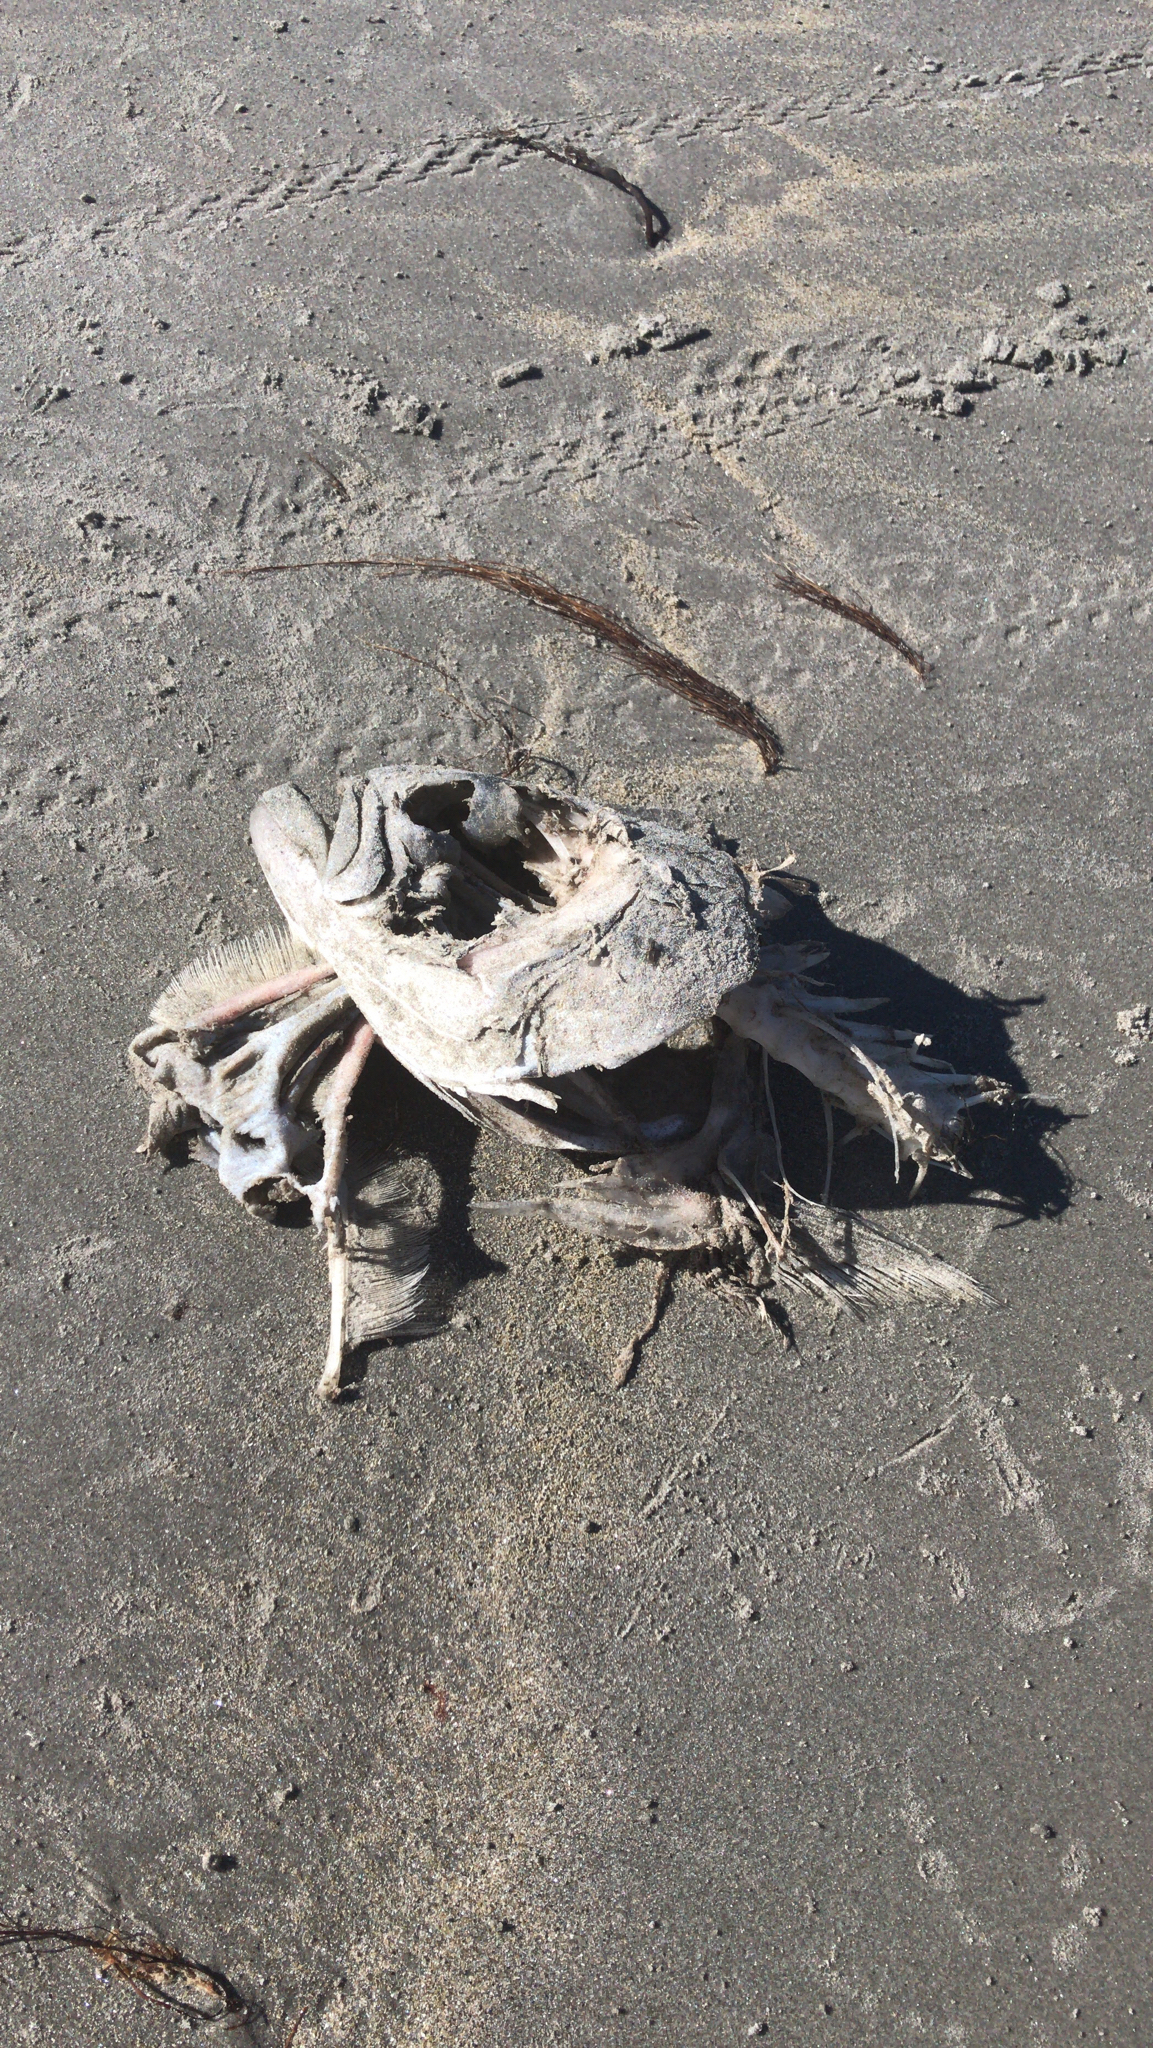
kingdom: Animalia
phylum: Chordata
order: Perciformes
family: Pomatomidae
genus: Pomatomus
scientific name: Pomatomus saltatrix
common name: Bluefish
